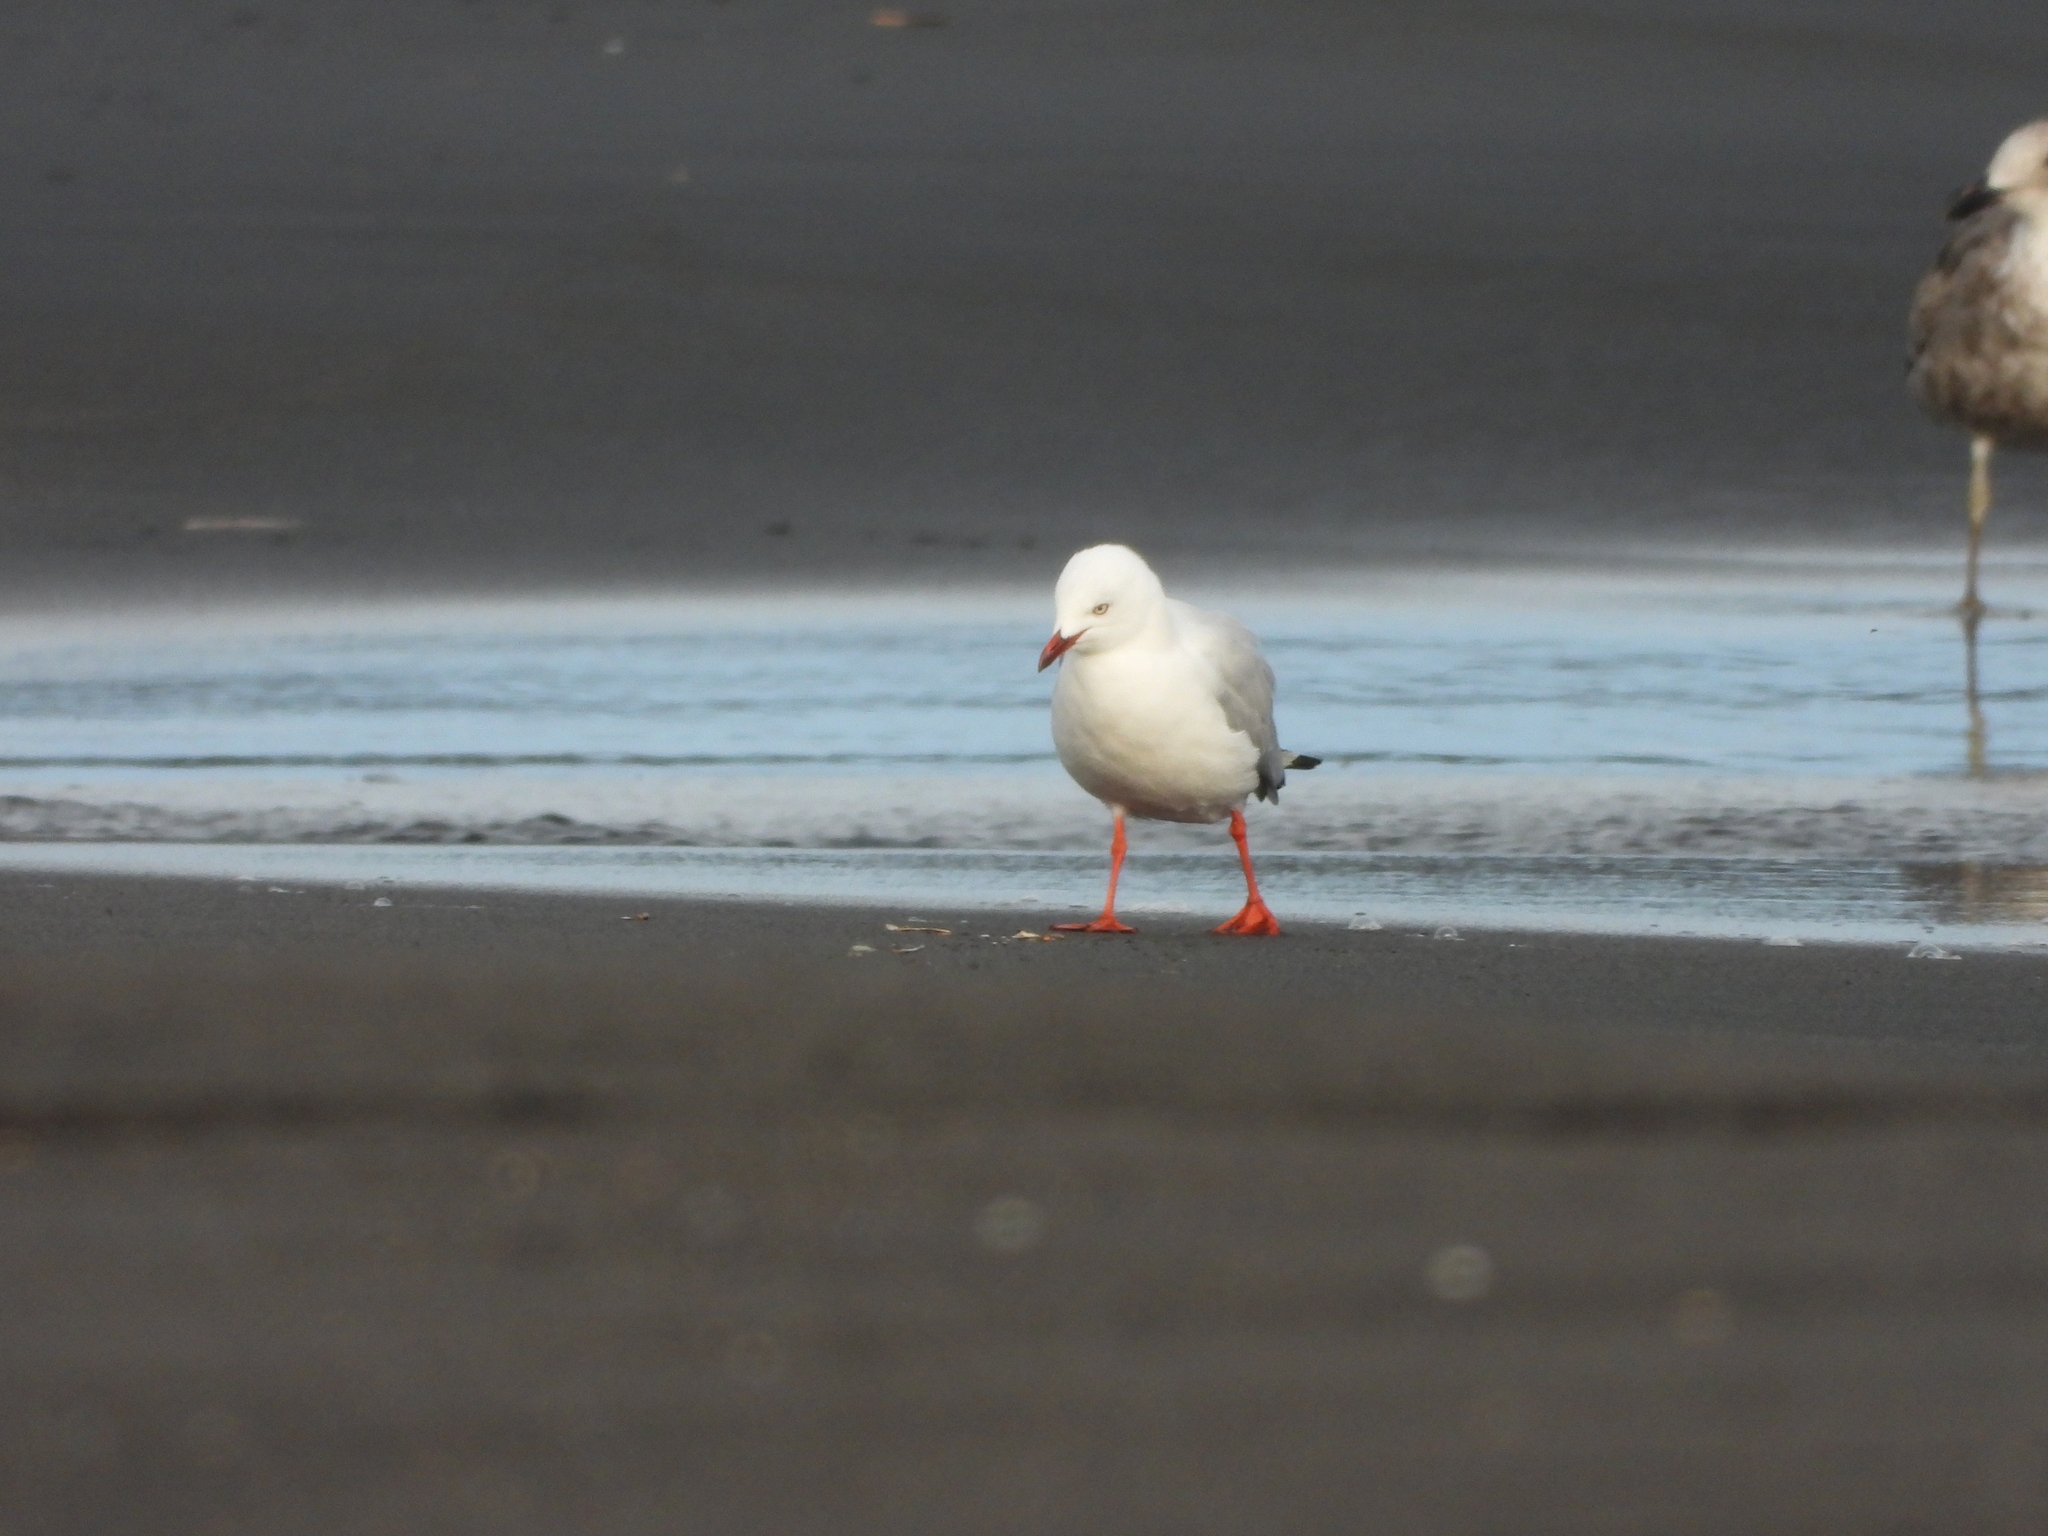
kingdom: Animalia
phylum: Chordata
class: Aves
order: Charadriiformes
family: Laridae
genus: Chroicocephalus
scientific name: Chroicocephalus novaehollandiae
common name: Silver gull
